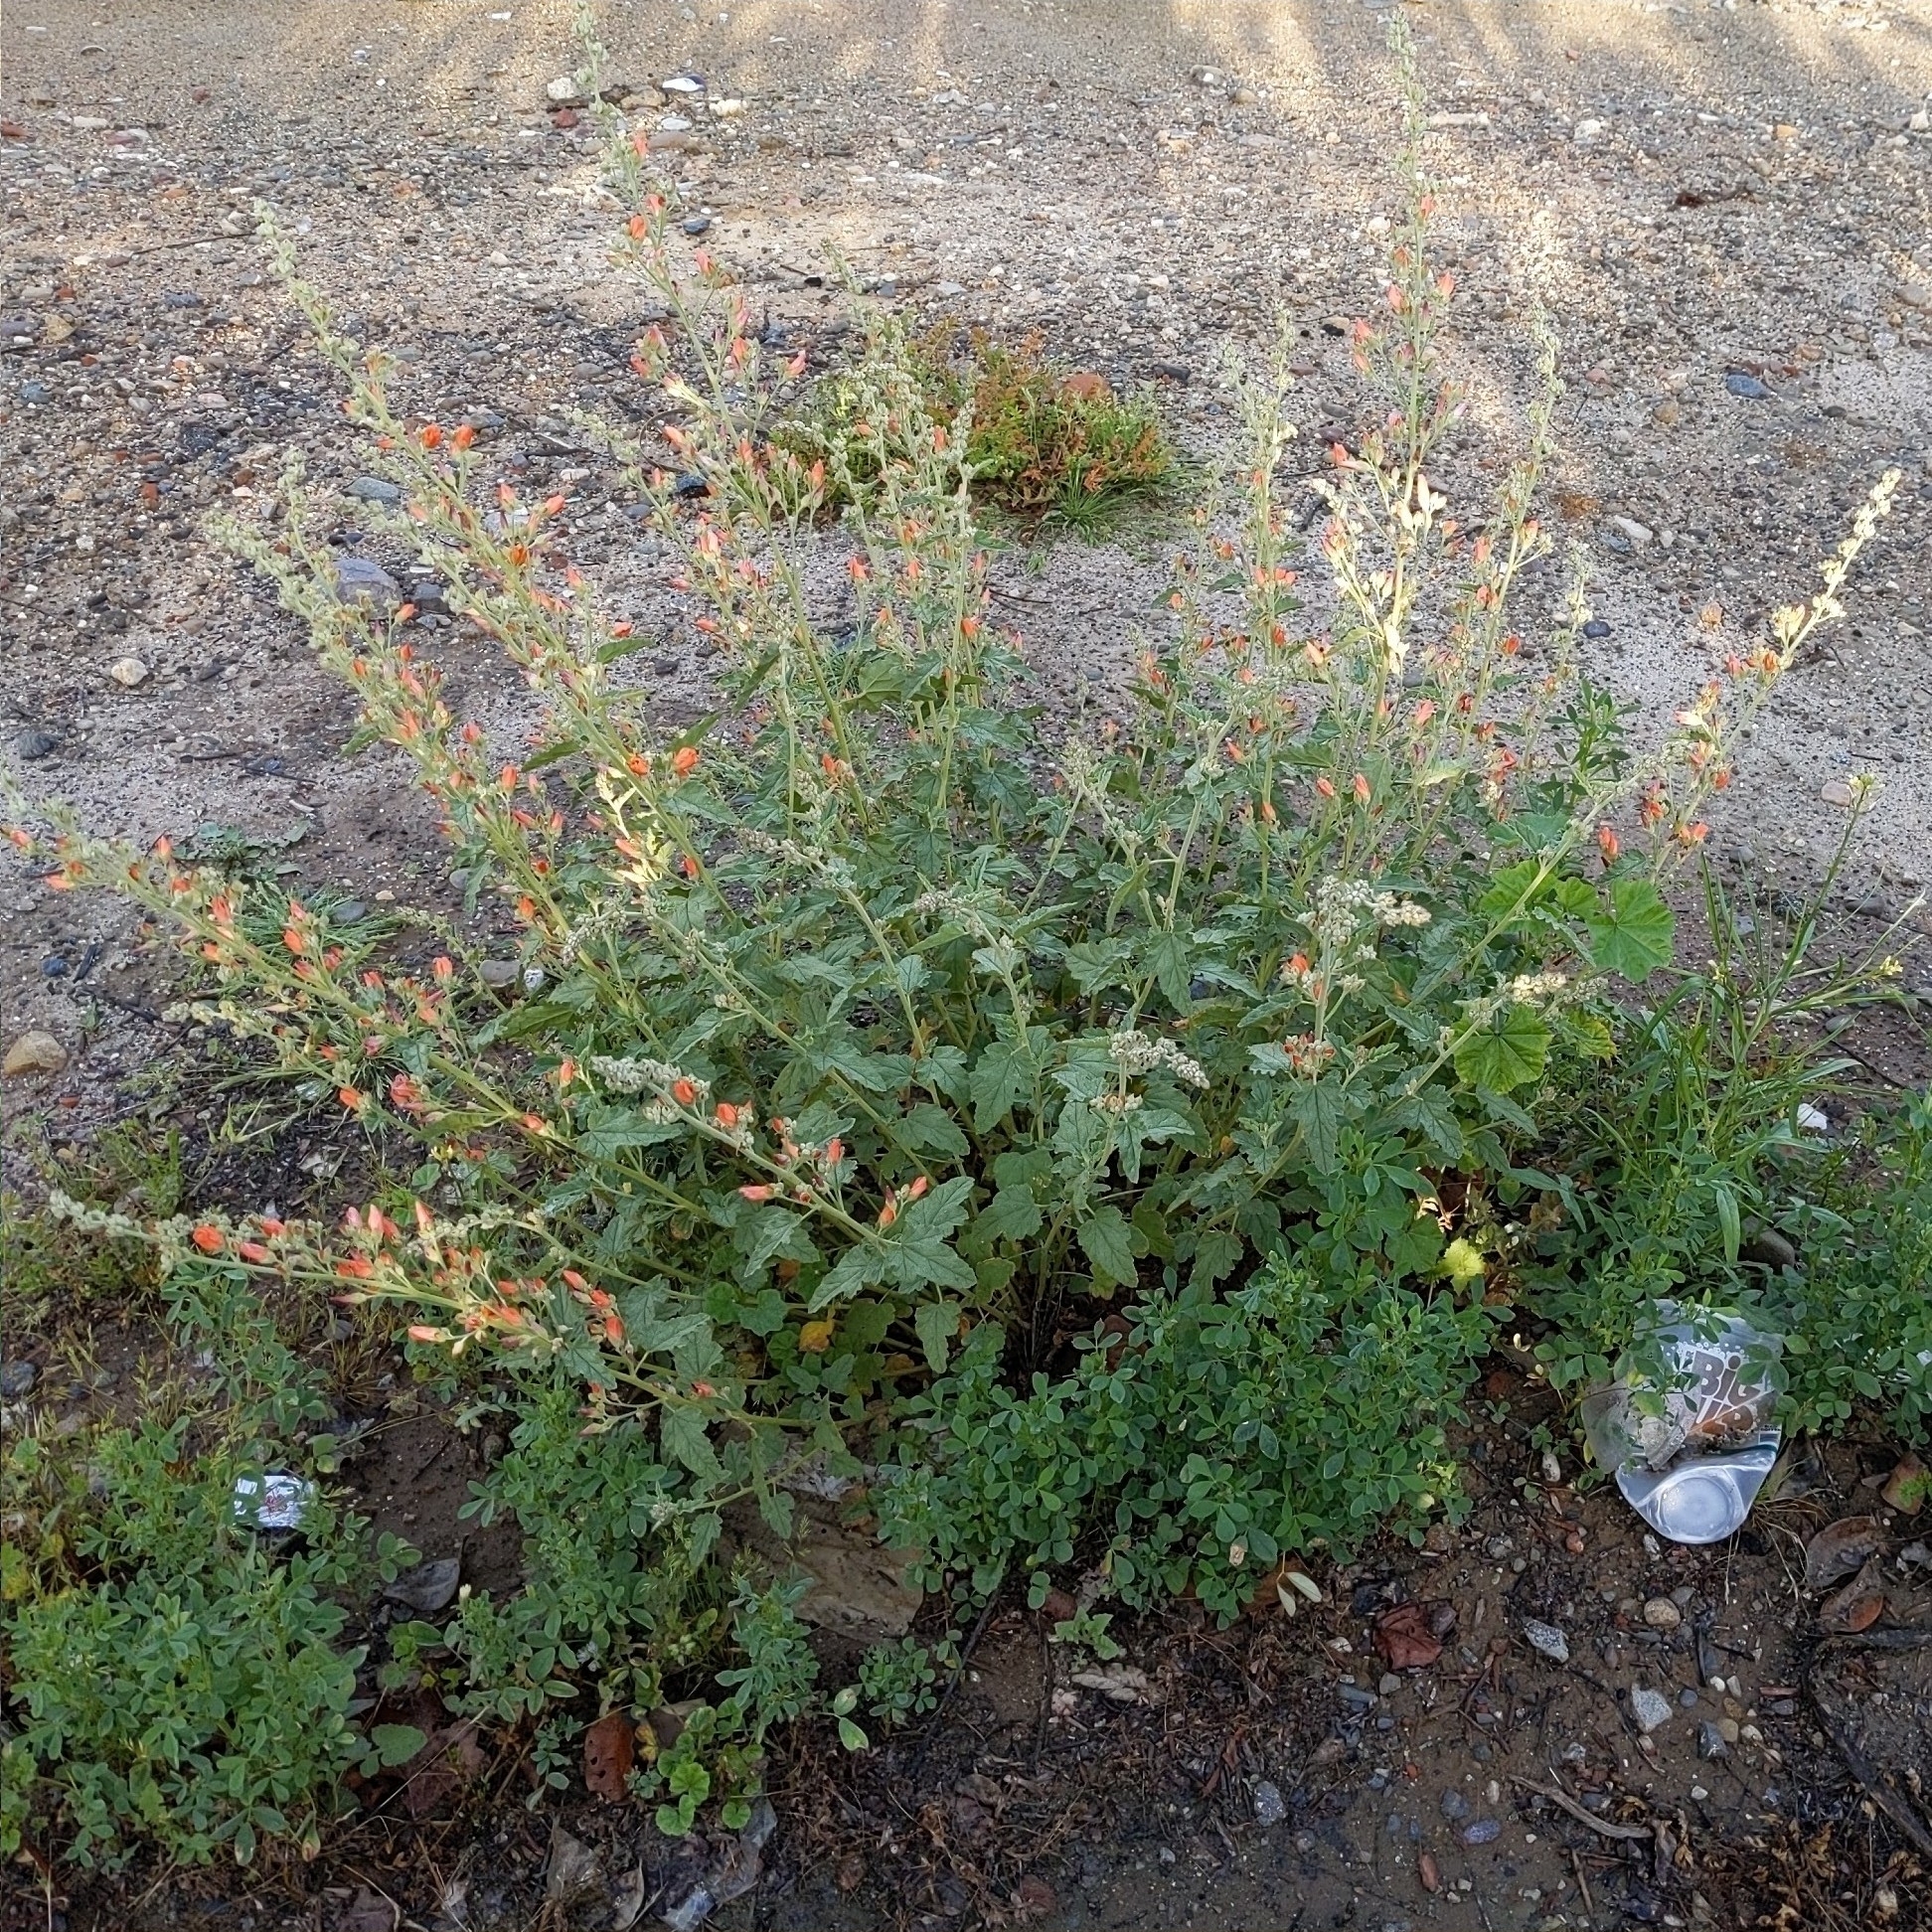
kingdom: Plantae
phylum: Tracheophyta
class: Magnoliopsida
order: Malvales
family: Malvaceae
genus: Sphaeralcea
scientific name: Sphaeralcea ambigua
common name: Apricot globe-mallow
